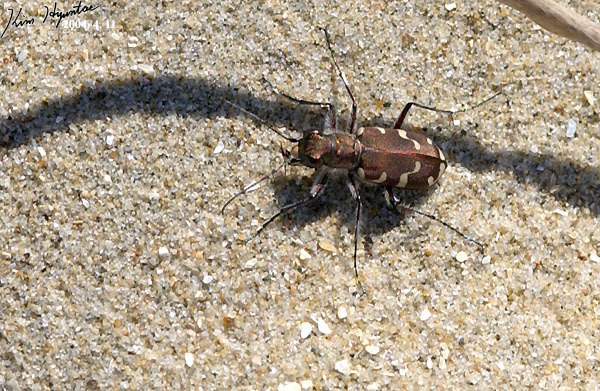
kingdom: Animalia
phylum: Arthropoda
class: Insecta
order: Coleoptera
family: Carabidae
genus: Cicindela
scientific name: Cicindela transbaicalica
